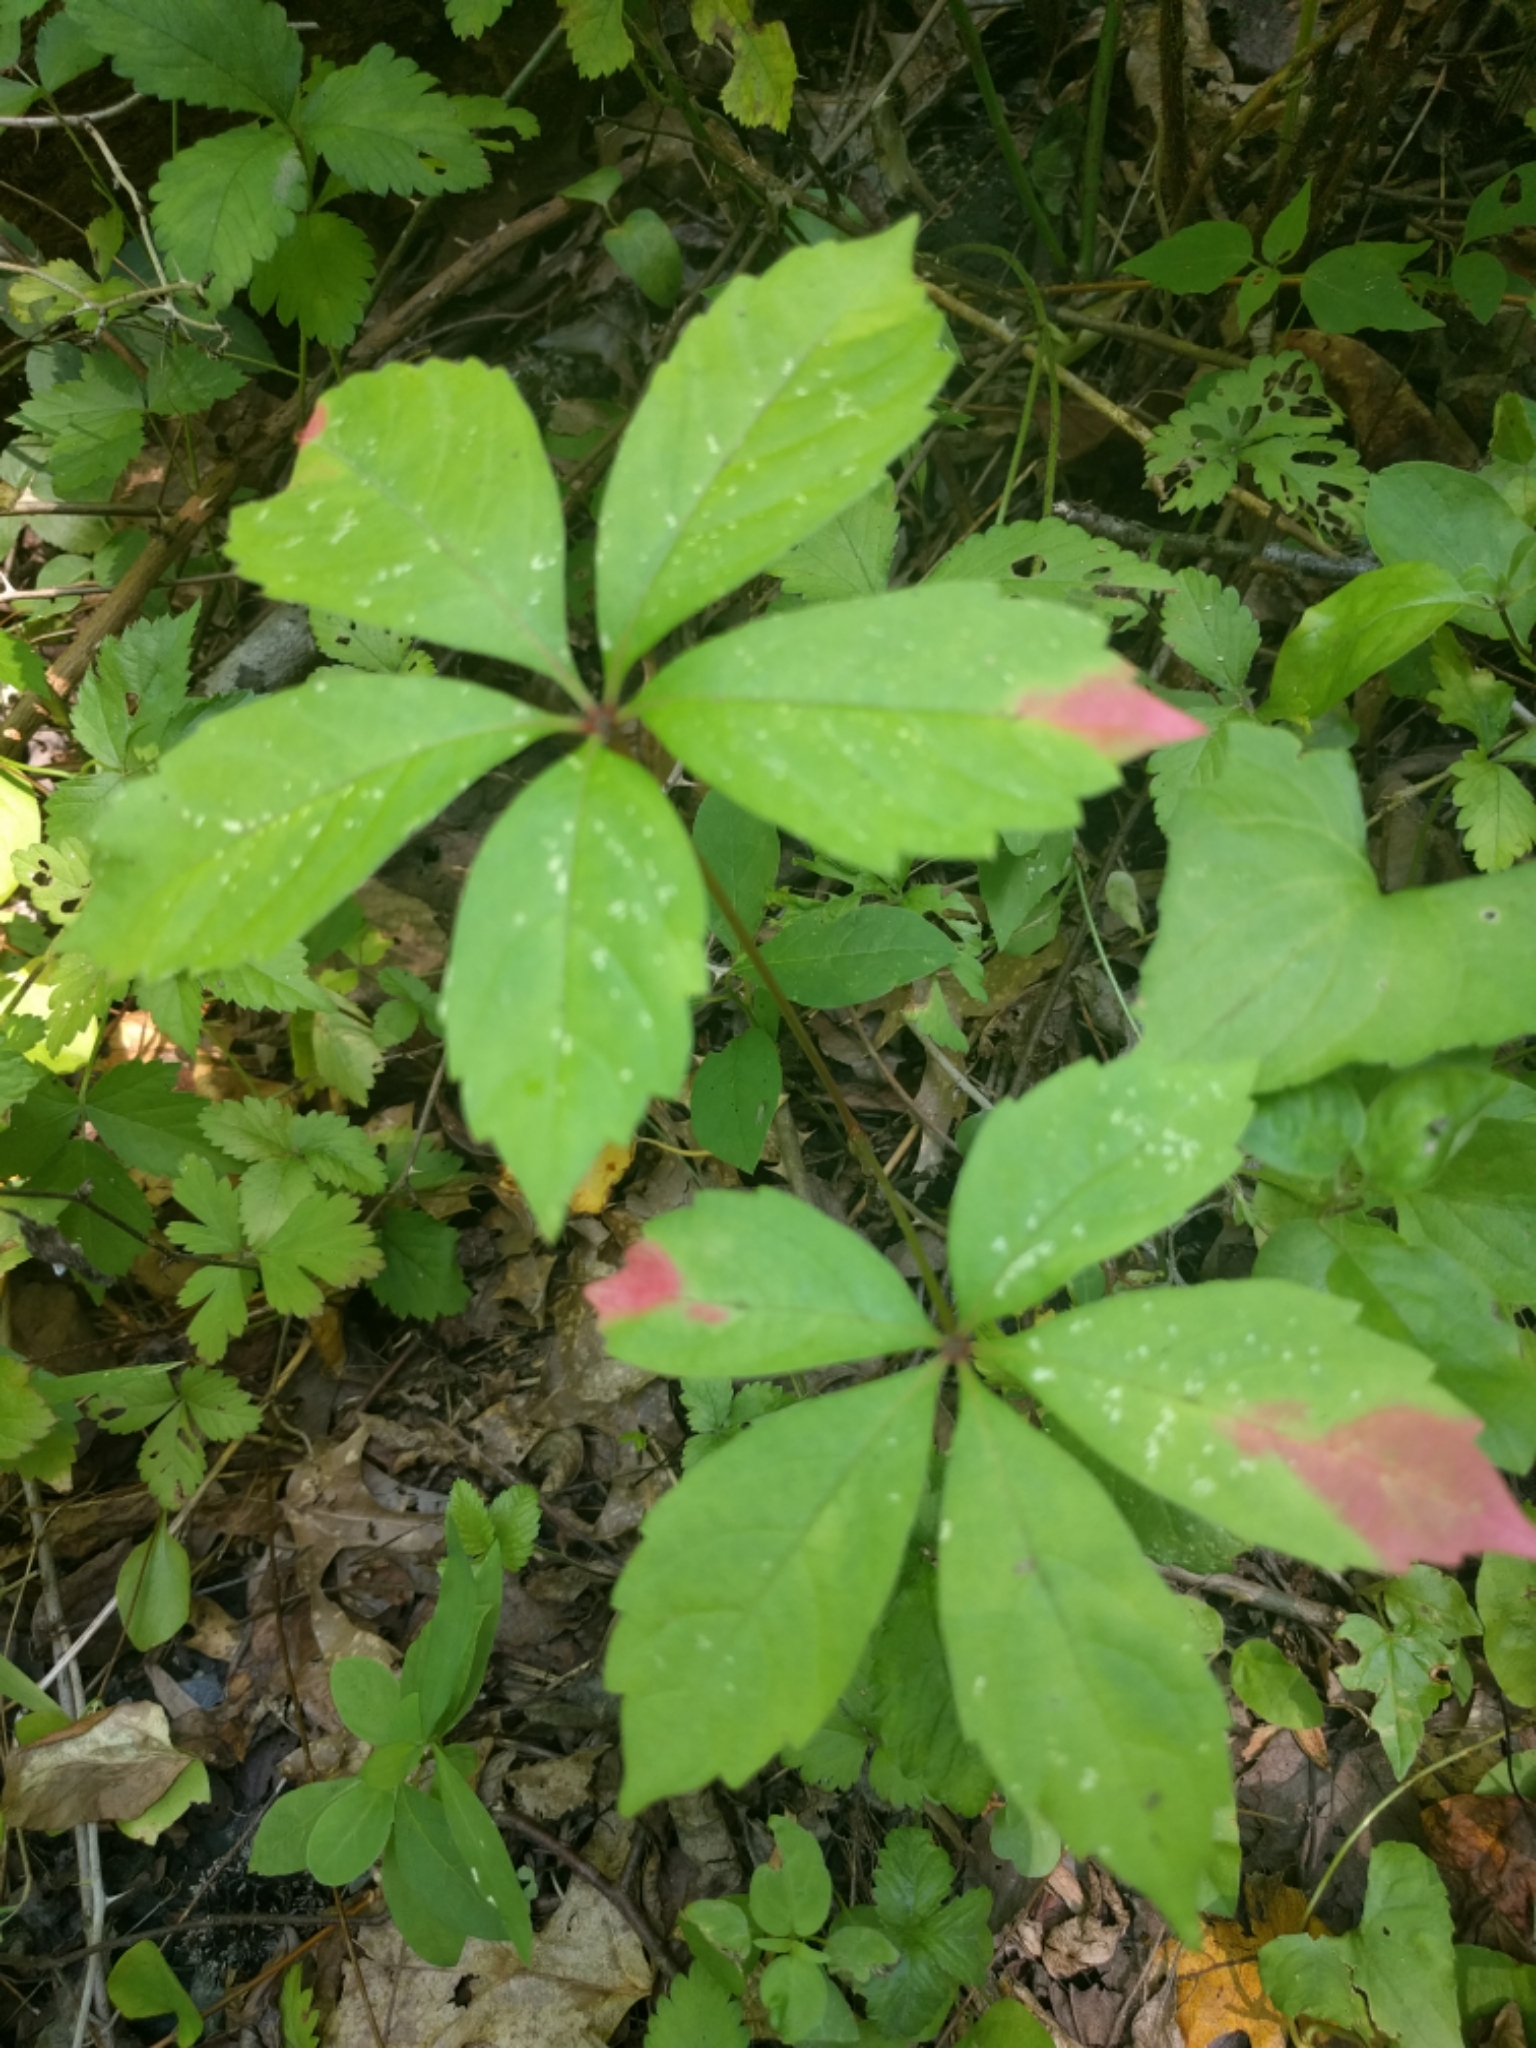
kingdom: Plantae
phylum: Tracheophyta
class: Magnoliopsida
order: Vitales
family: Vitaceae
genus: Parthenocissus
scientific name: Parthenocissus quinquefolia
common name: Virginia-creeper
